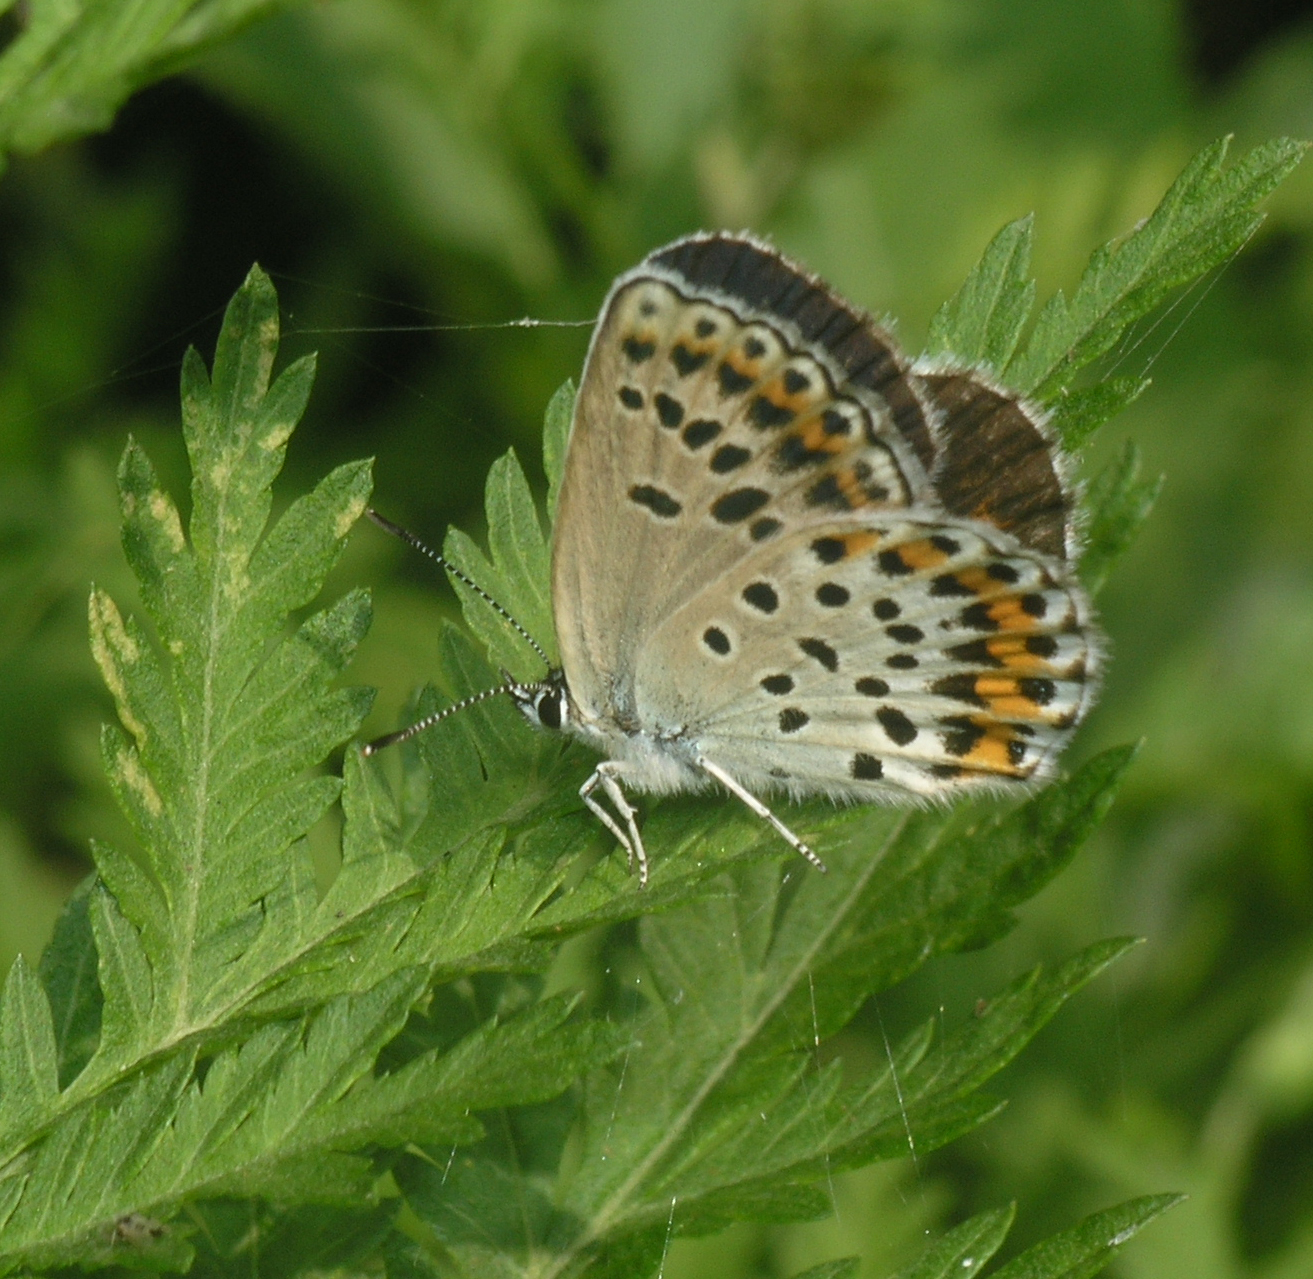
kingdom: Animalia
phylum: Arthropoda
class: Insecta
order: Lepidoptera
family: Lycaenidae
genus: Plebejus
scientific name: Plebejus subsolanus
